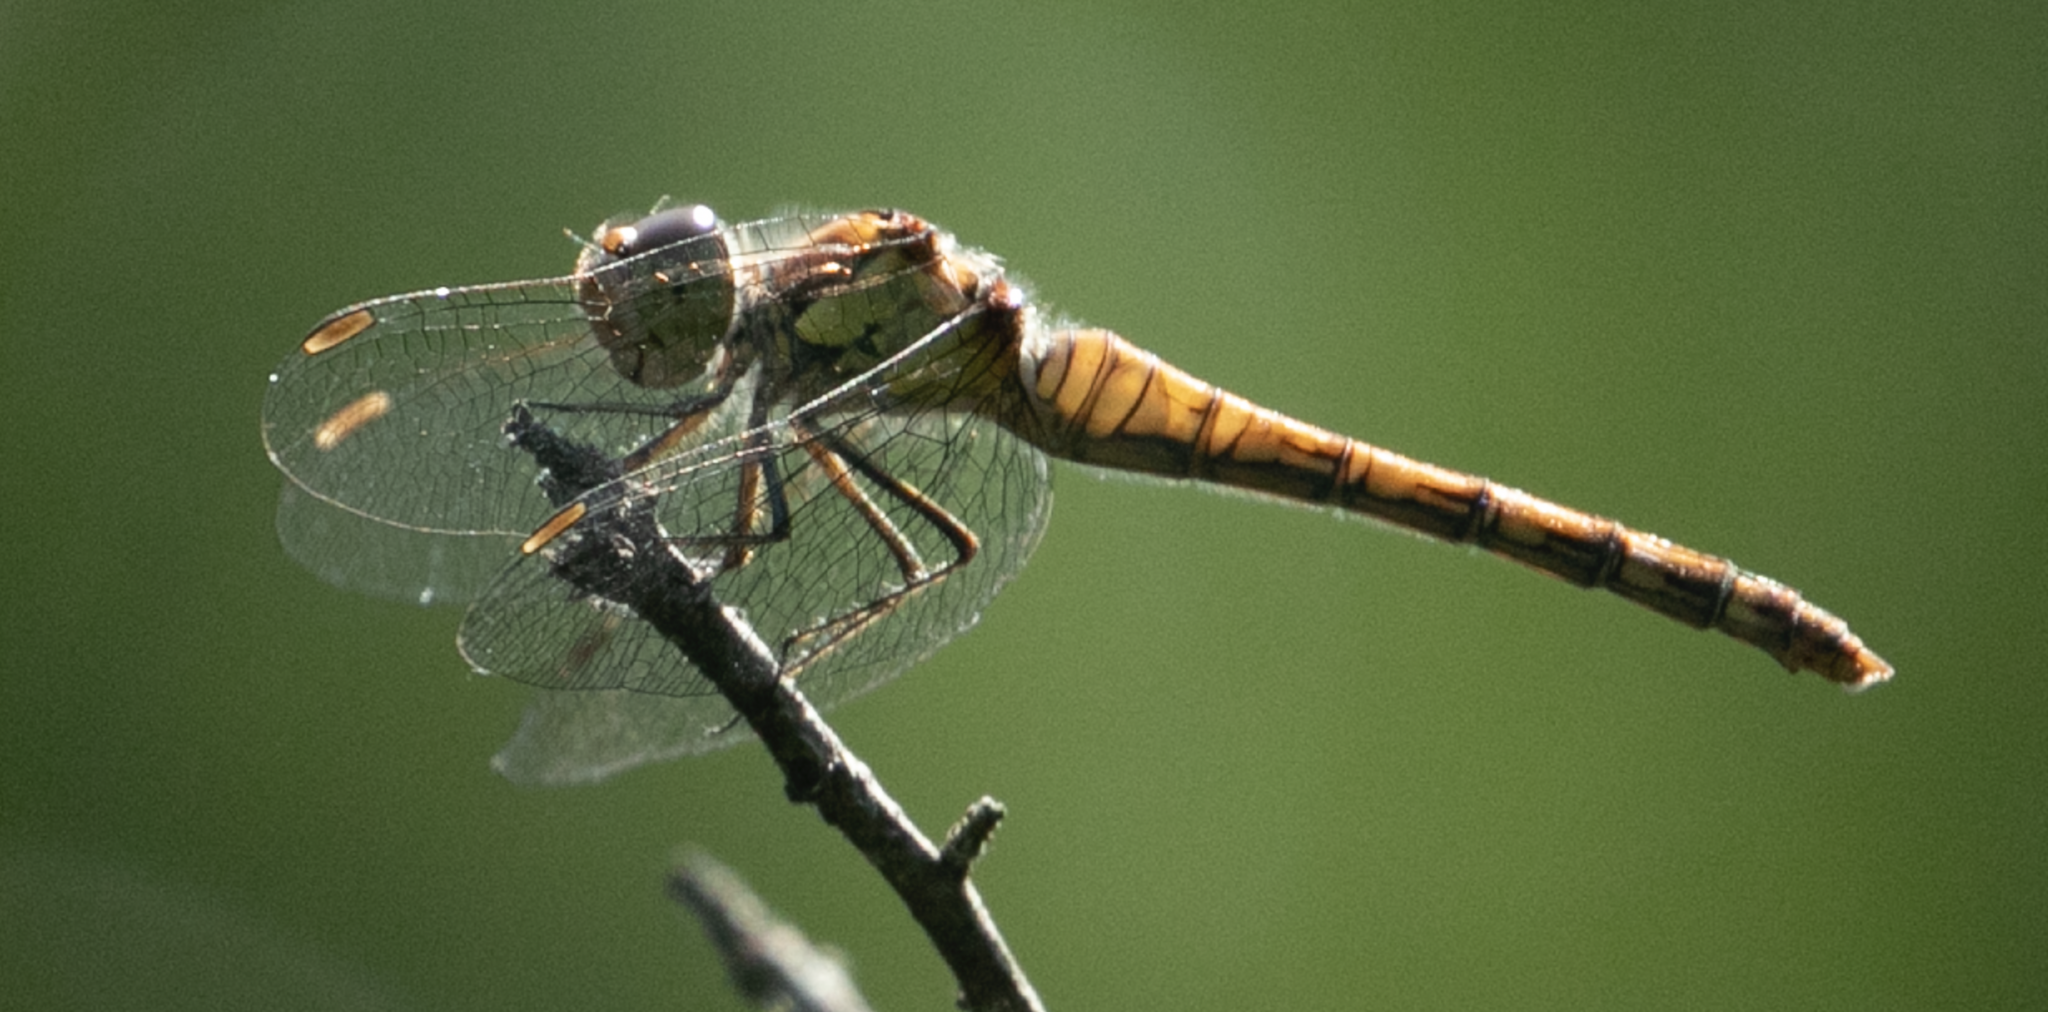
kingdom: Animalia
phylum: Arthropoda
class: Insecta
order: Odonata
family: Libellulidae
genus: Sympetrum
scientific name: Sympetrum striolatum
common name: Common darter
